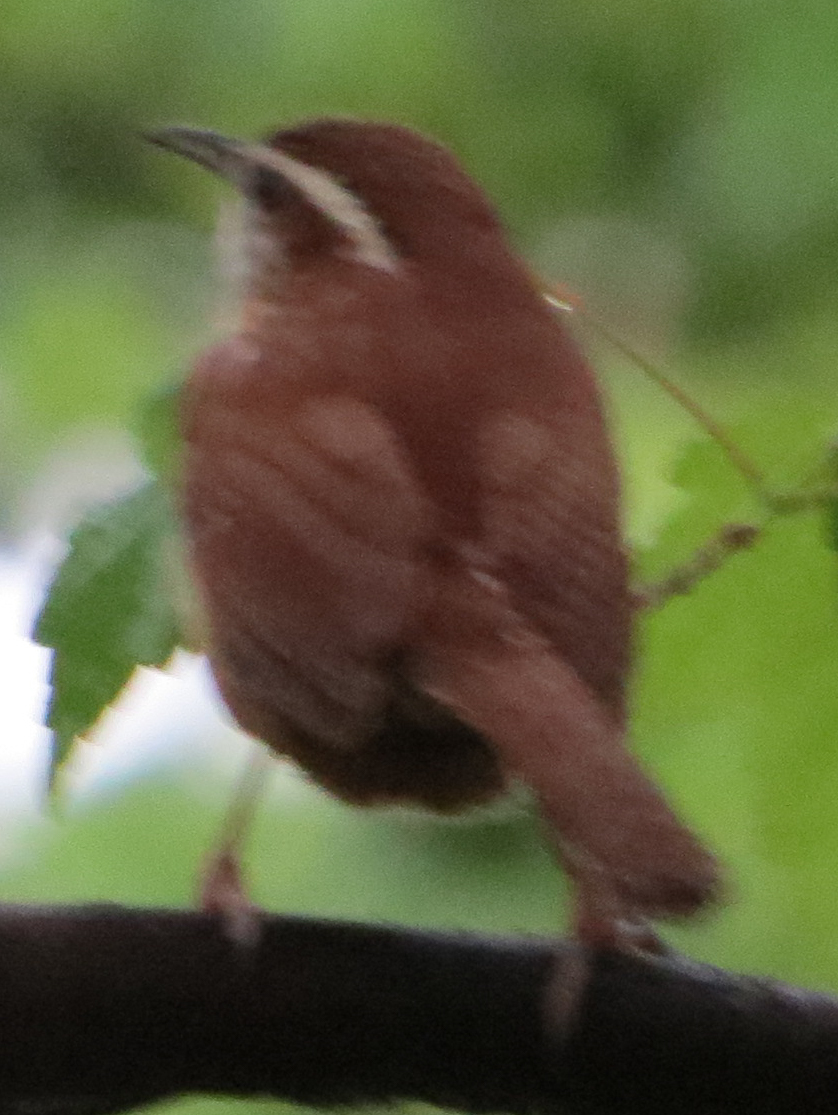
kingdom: Animalia
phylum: Chordata
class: Aves
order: Passeriformes
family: Troglodytidae
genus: Thryothorus
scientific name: Thryothorus ludovicianus
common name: Carolina wren
